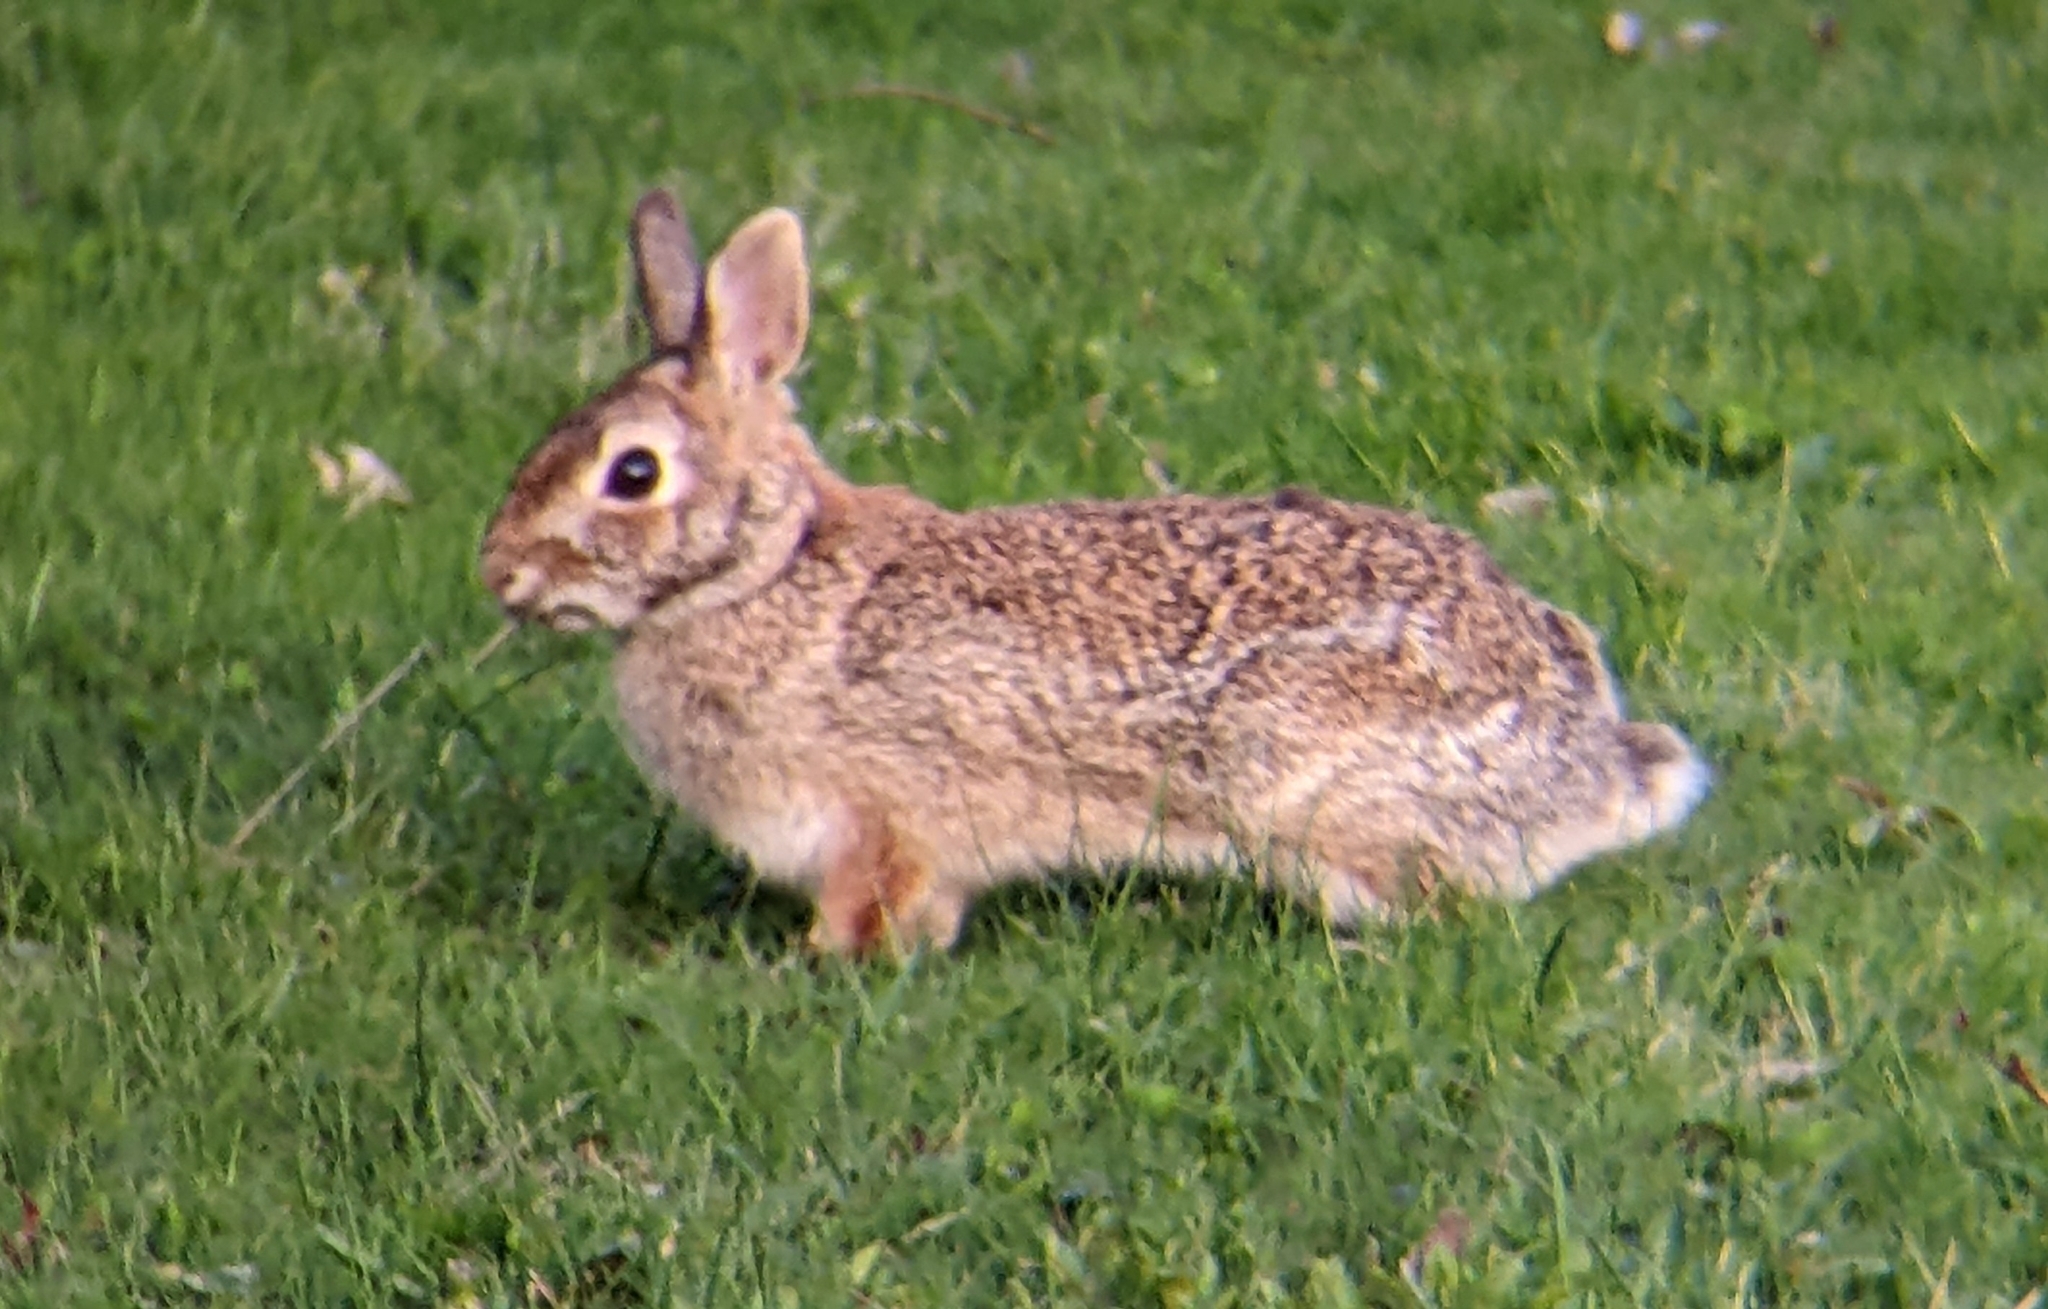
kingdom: Animalia
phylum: Chordata
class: Mammalia
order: Lagomorpha
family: Leporidae
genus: Sylvilagus
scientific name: Sylvilagus floridanus
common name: Eastern cottontail
